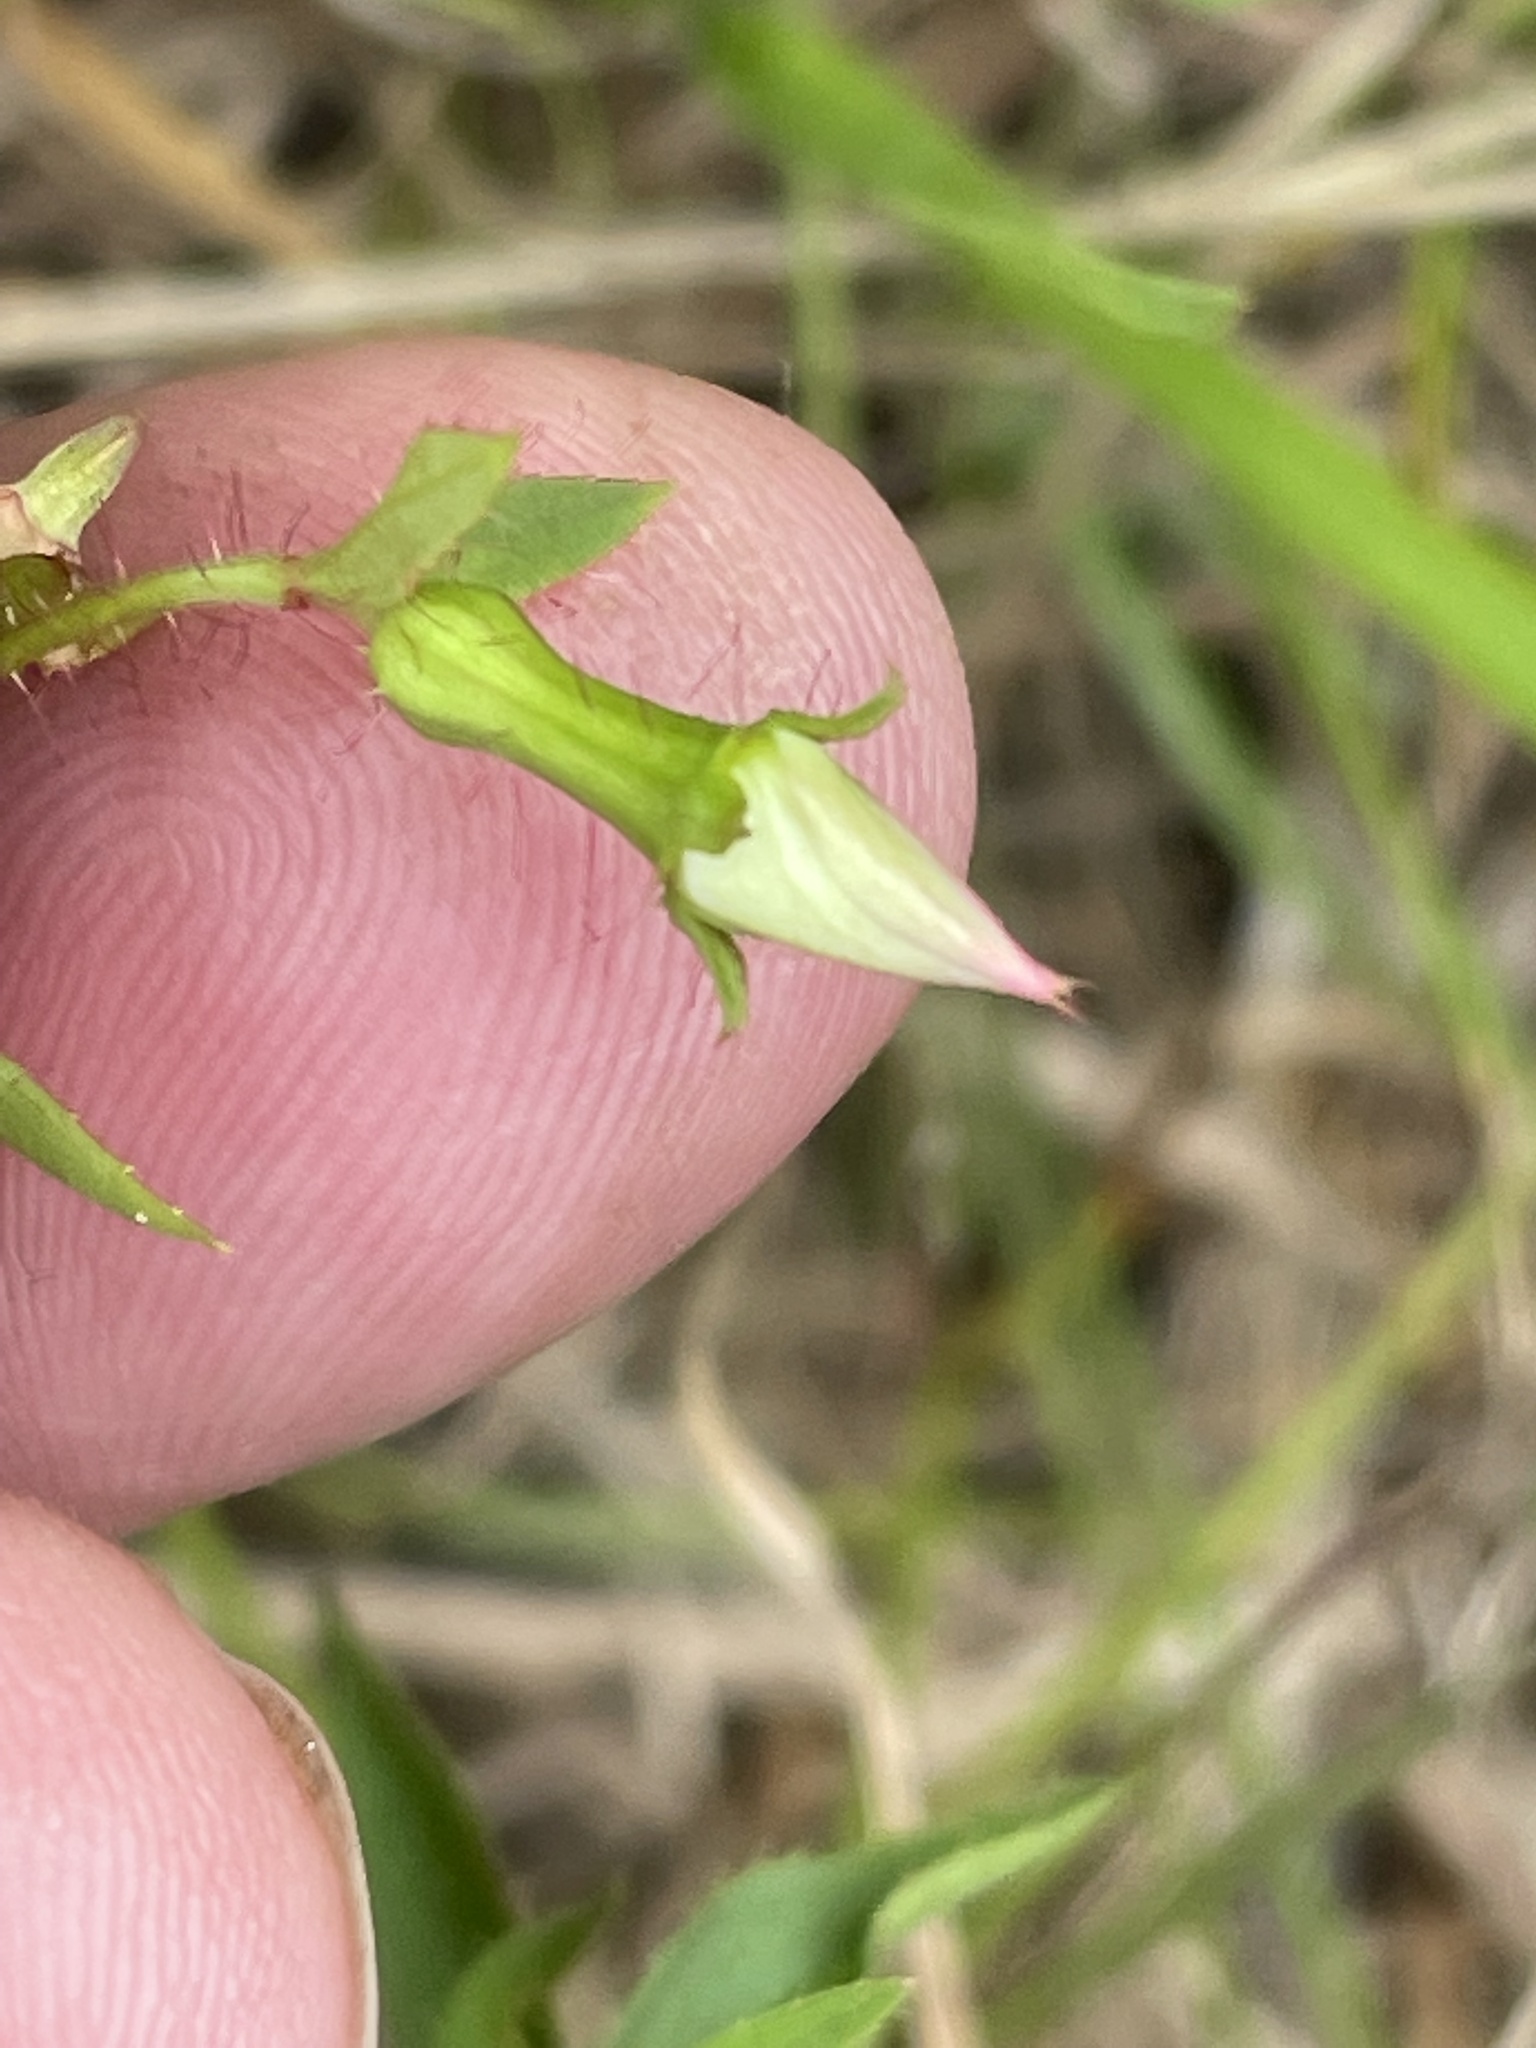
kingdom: Plantae
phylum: Tracheophyta
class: Magnoliopsida
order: Myrtales
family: Melastomataceae
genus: Rhexia
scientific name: Rhexia mariana
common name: Dull meadow-pitcher
